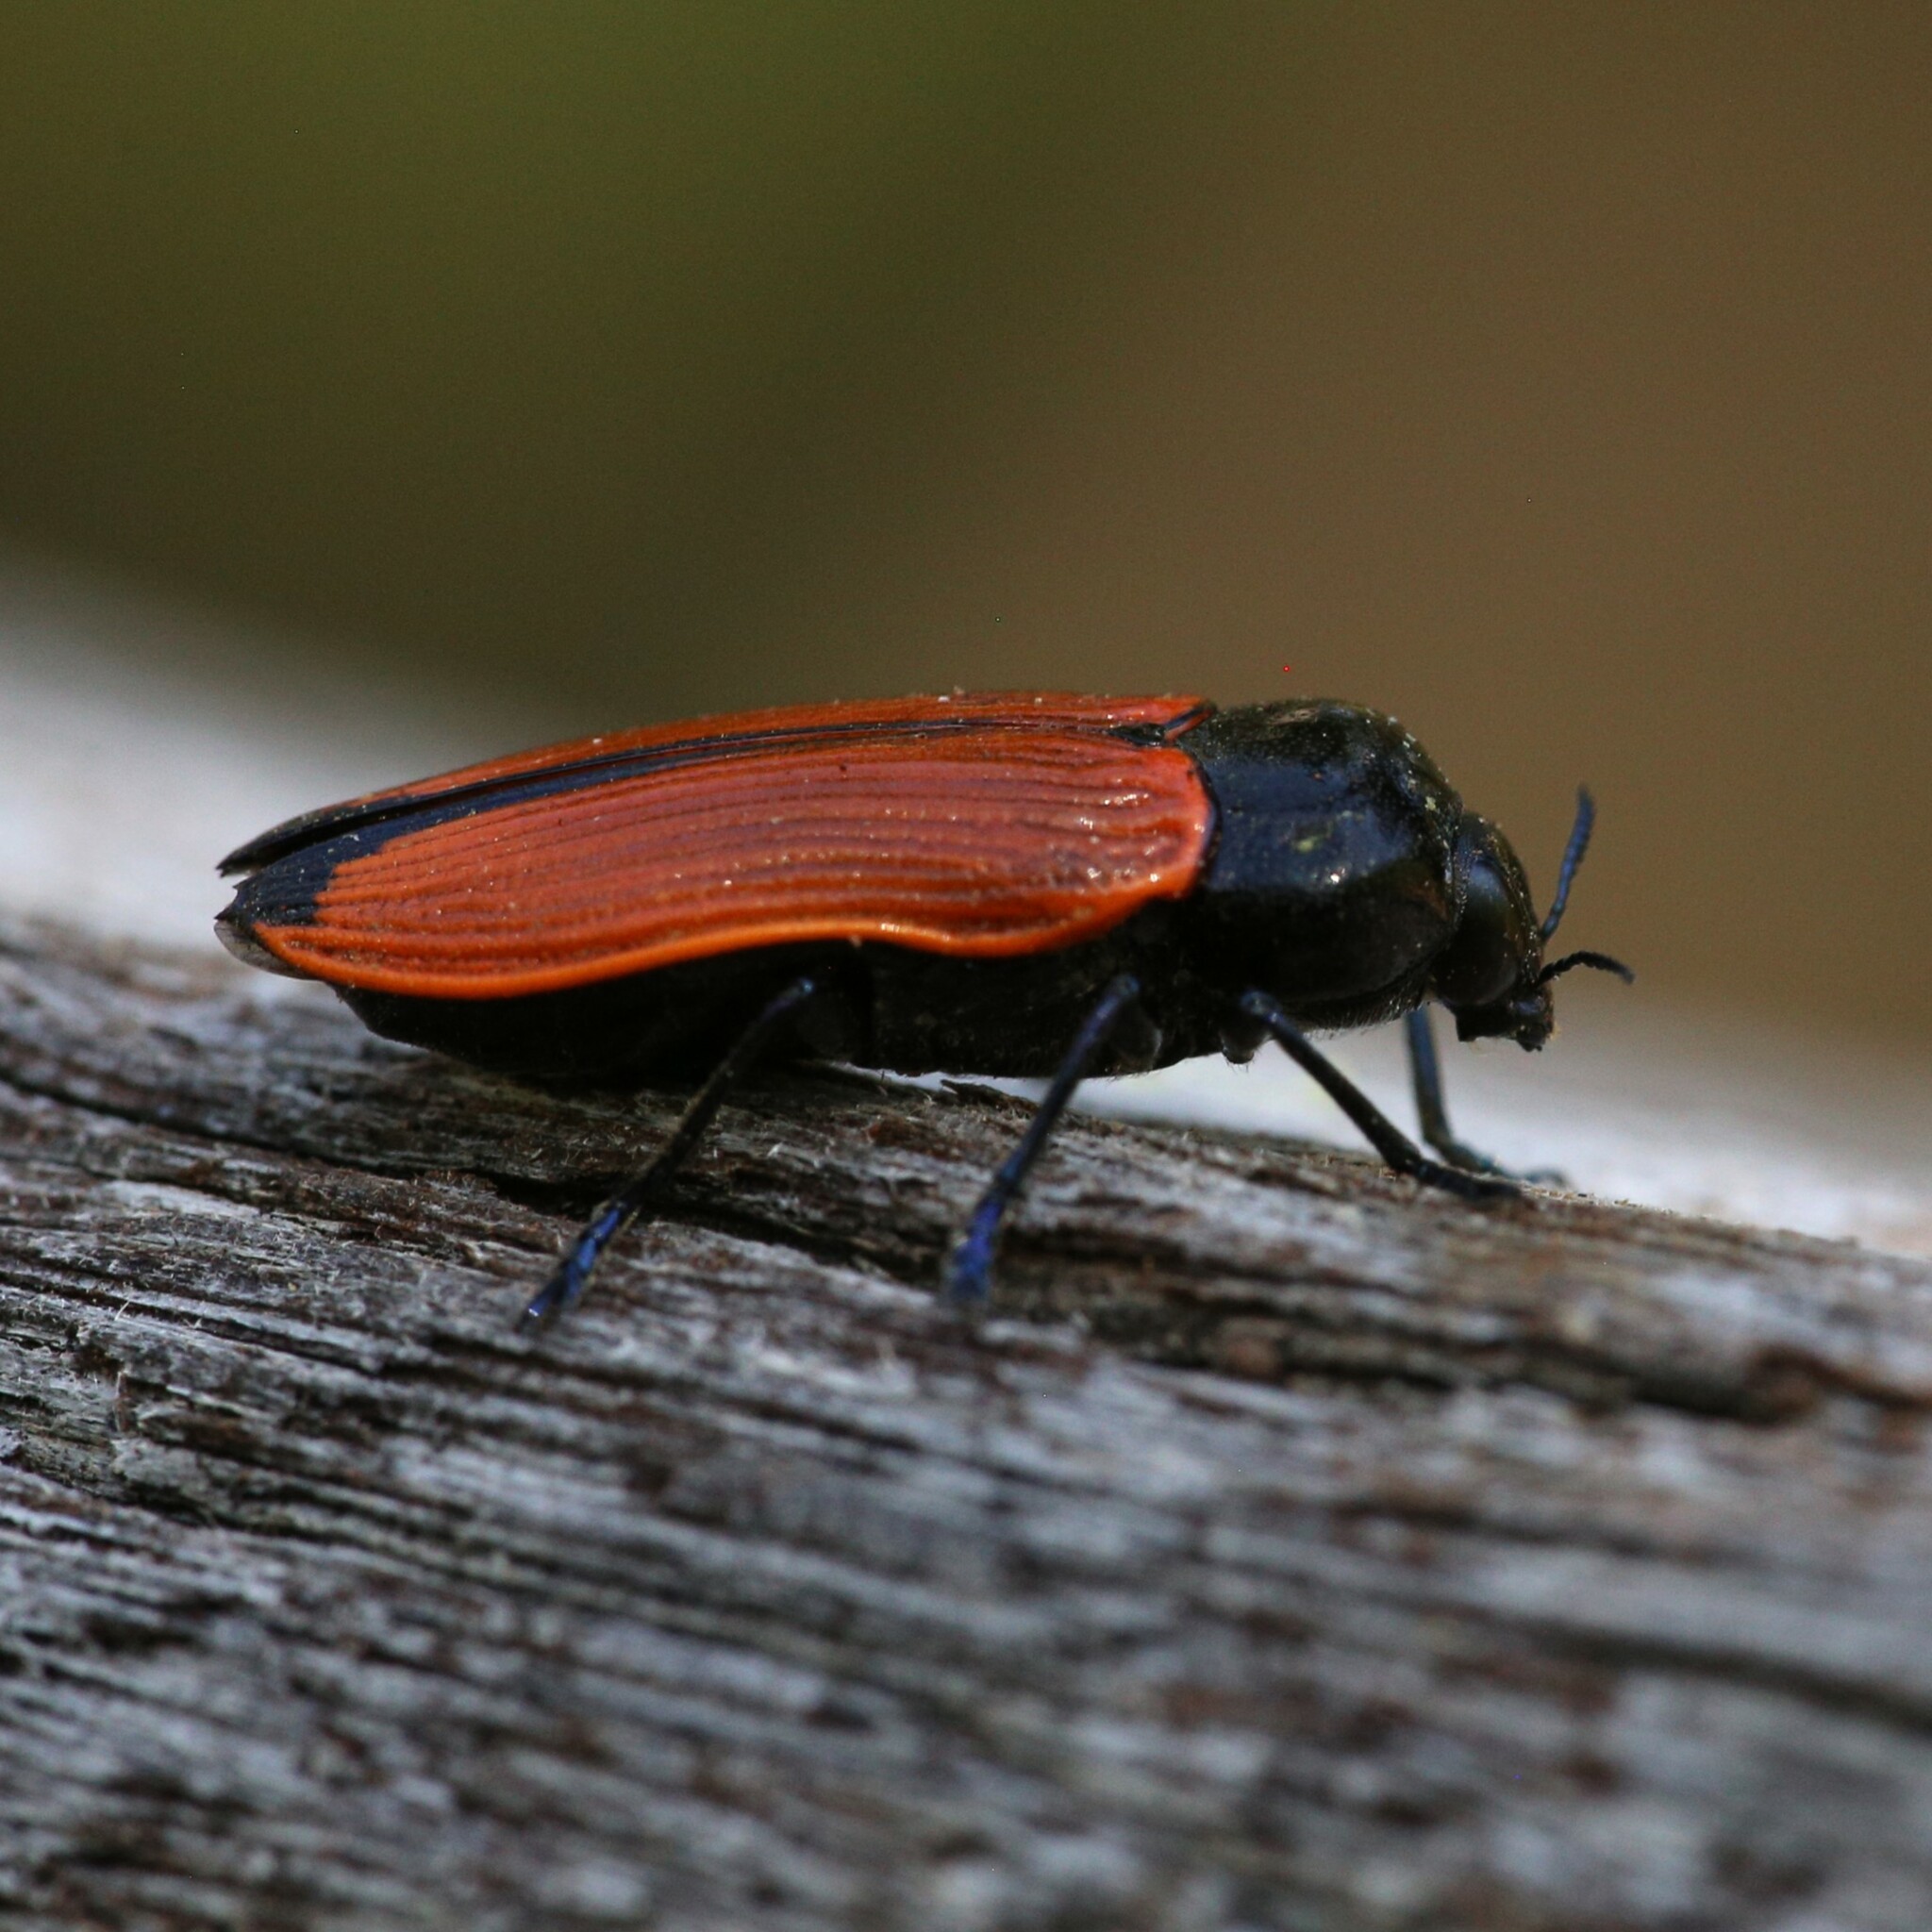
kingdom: Animalia
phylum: Arthropoda
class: Insecta
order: Coleoptera
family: Buprestidae
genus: Castiarina
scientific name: Castiarina rufipennis
